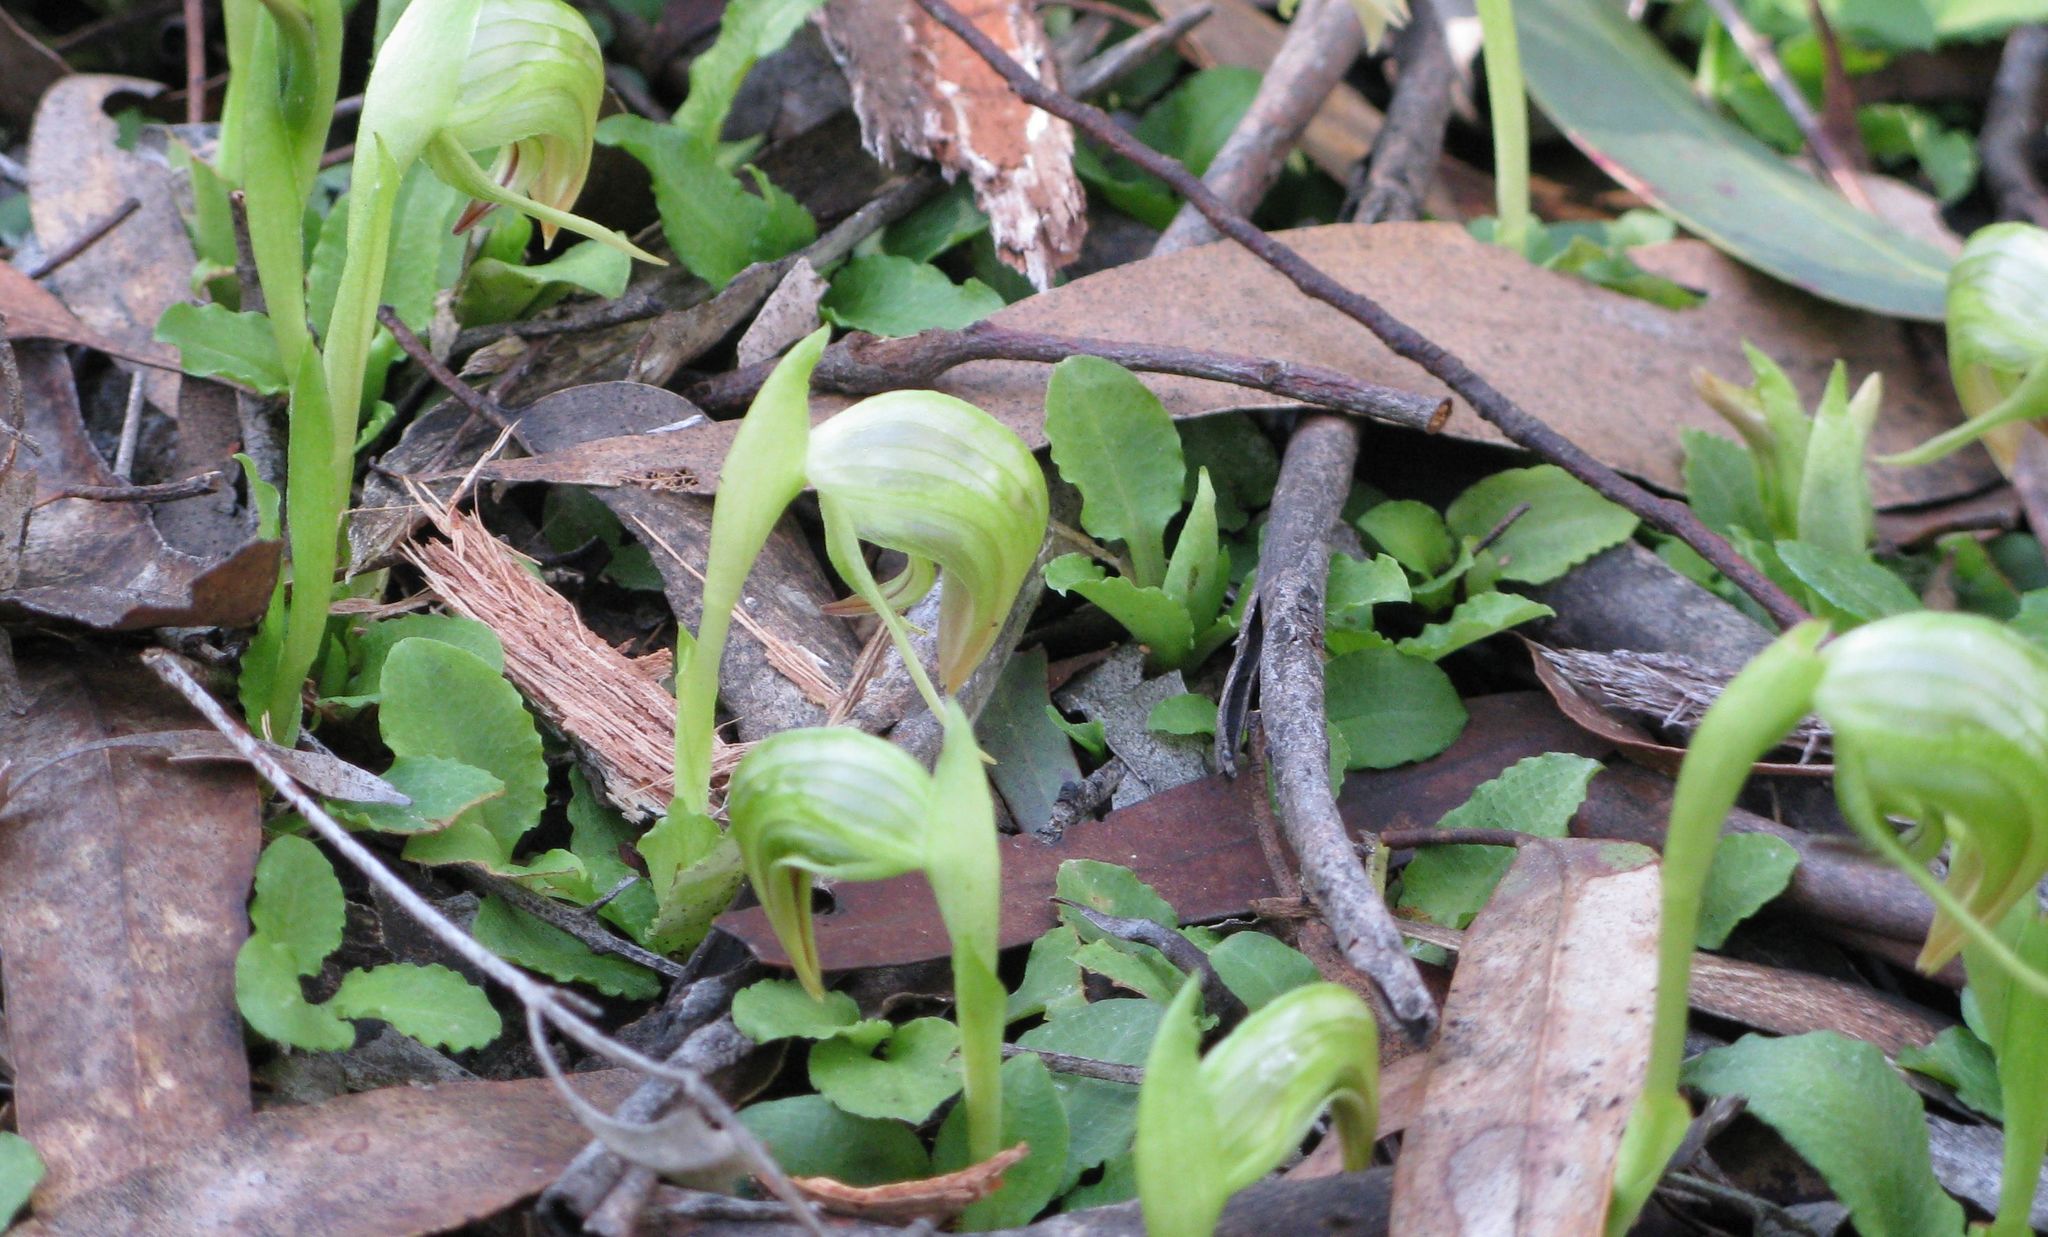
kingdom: Plantae
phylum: Tracheophyta
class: Liliopsida
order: Asparagales
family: Orchidaceae
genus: Pterostylis
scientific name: Pterostylis nutans
